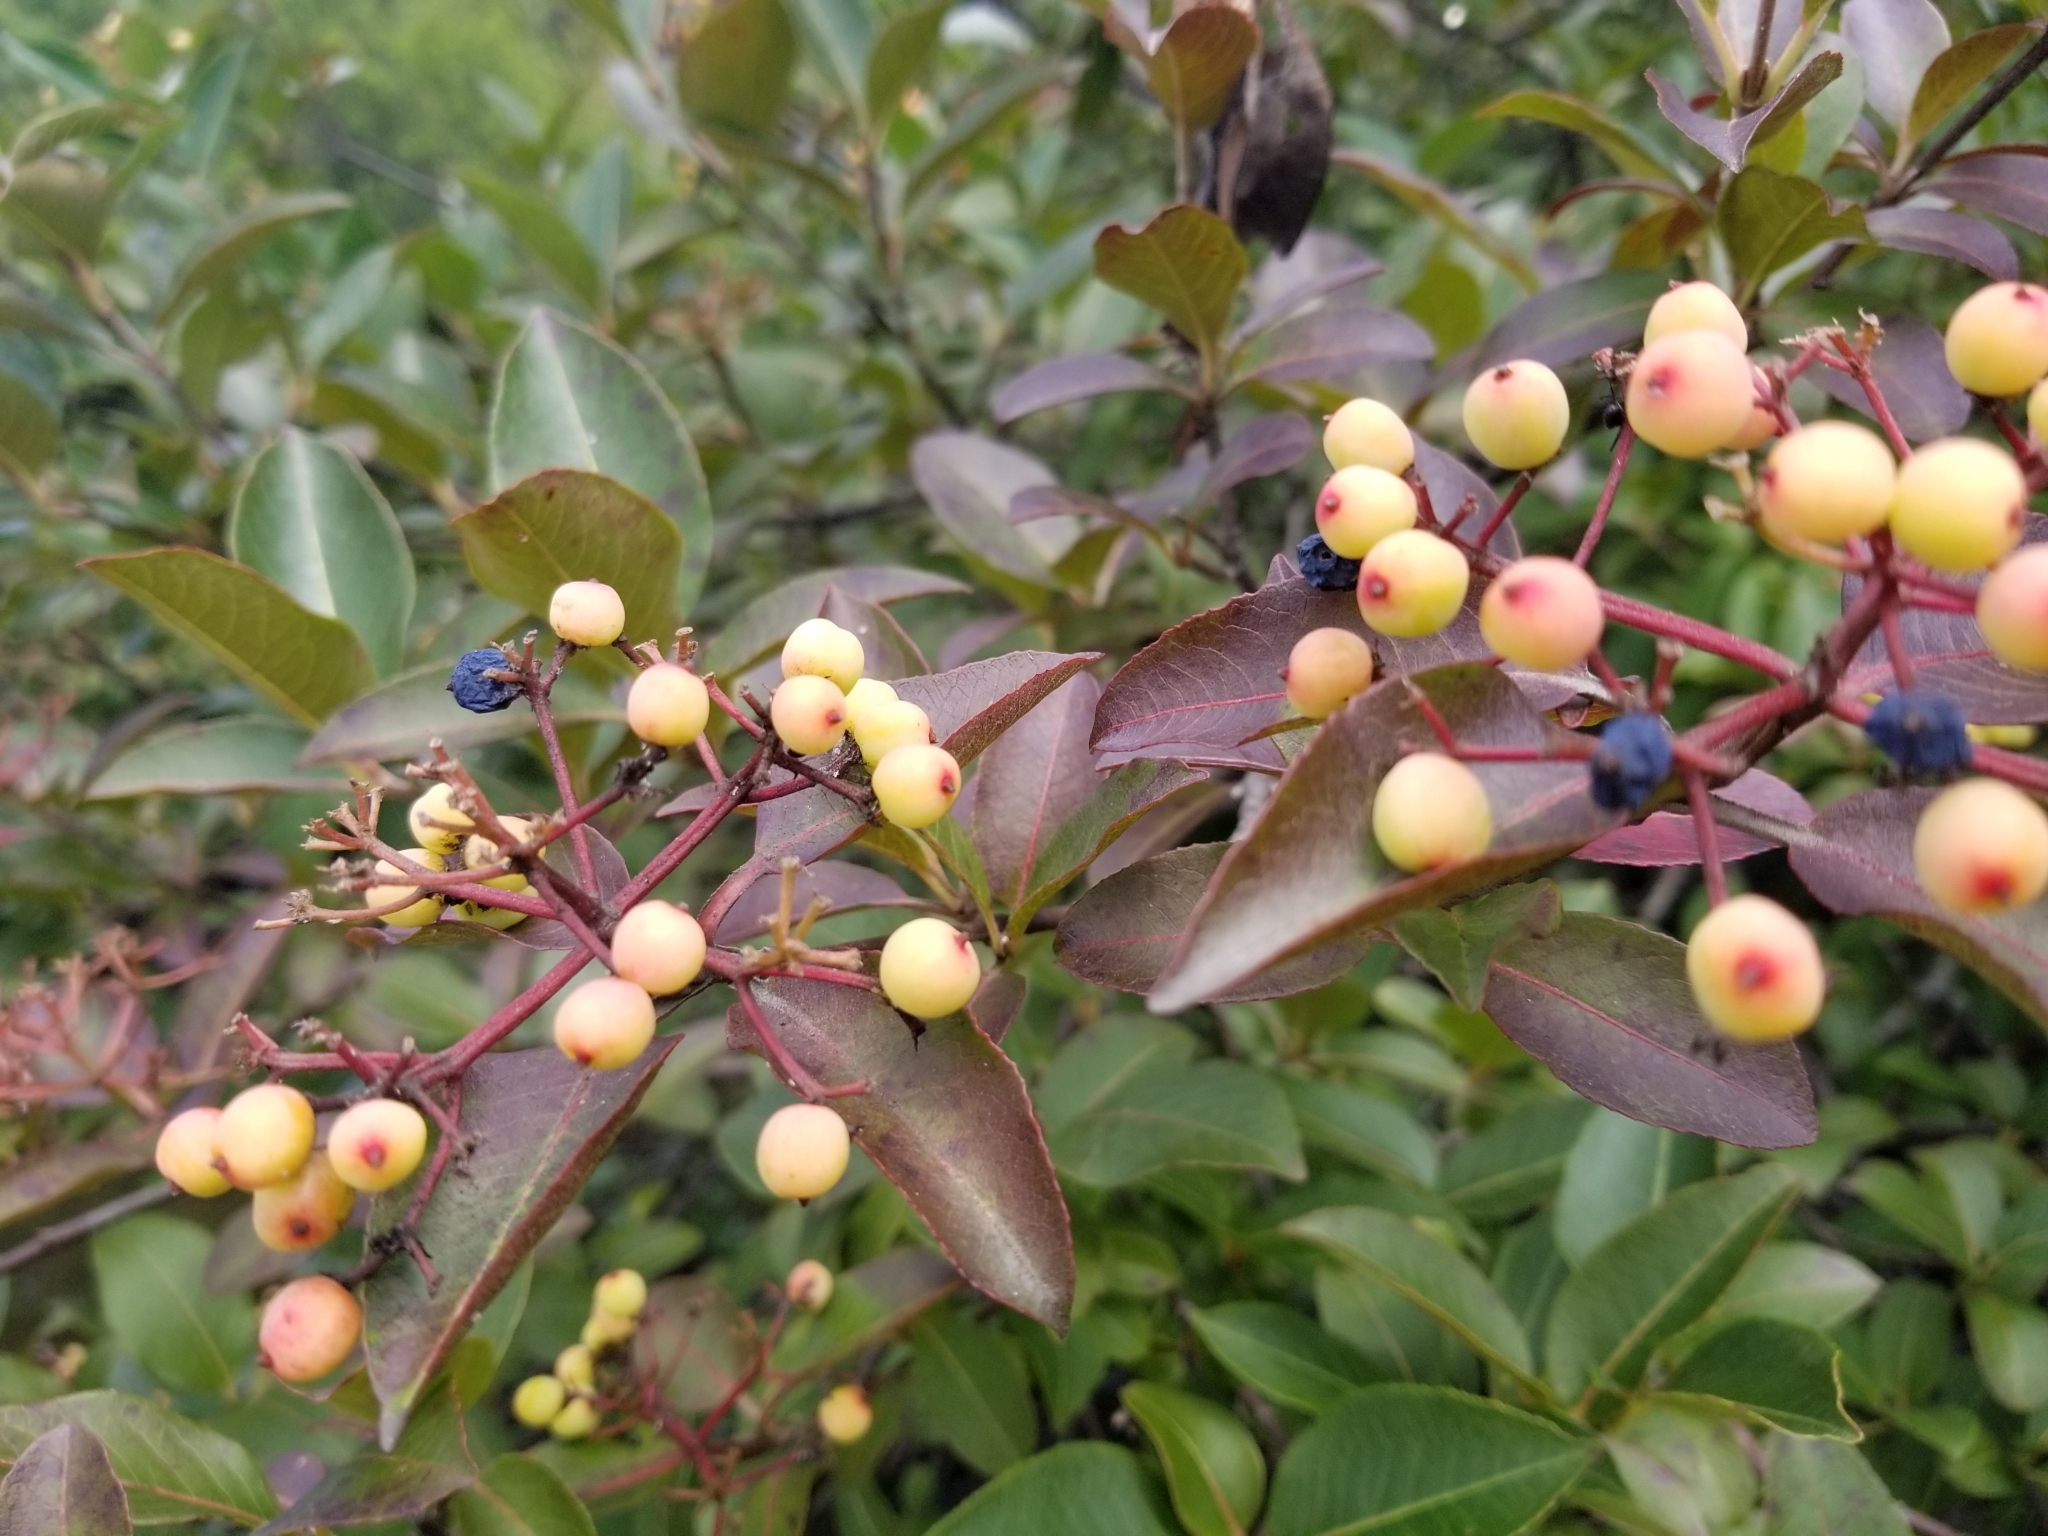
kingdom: Plantae
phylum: Tracheophyta
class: Magnoliopsida
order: Dipsacales
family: Viburnaceae
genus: Viburnum
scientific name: Viburnum cassinoides
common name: Swamp haw
